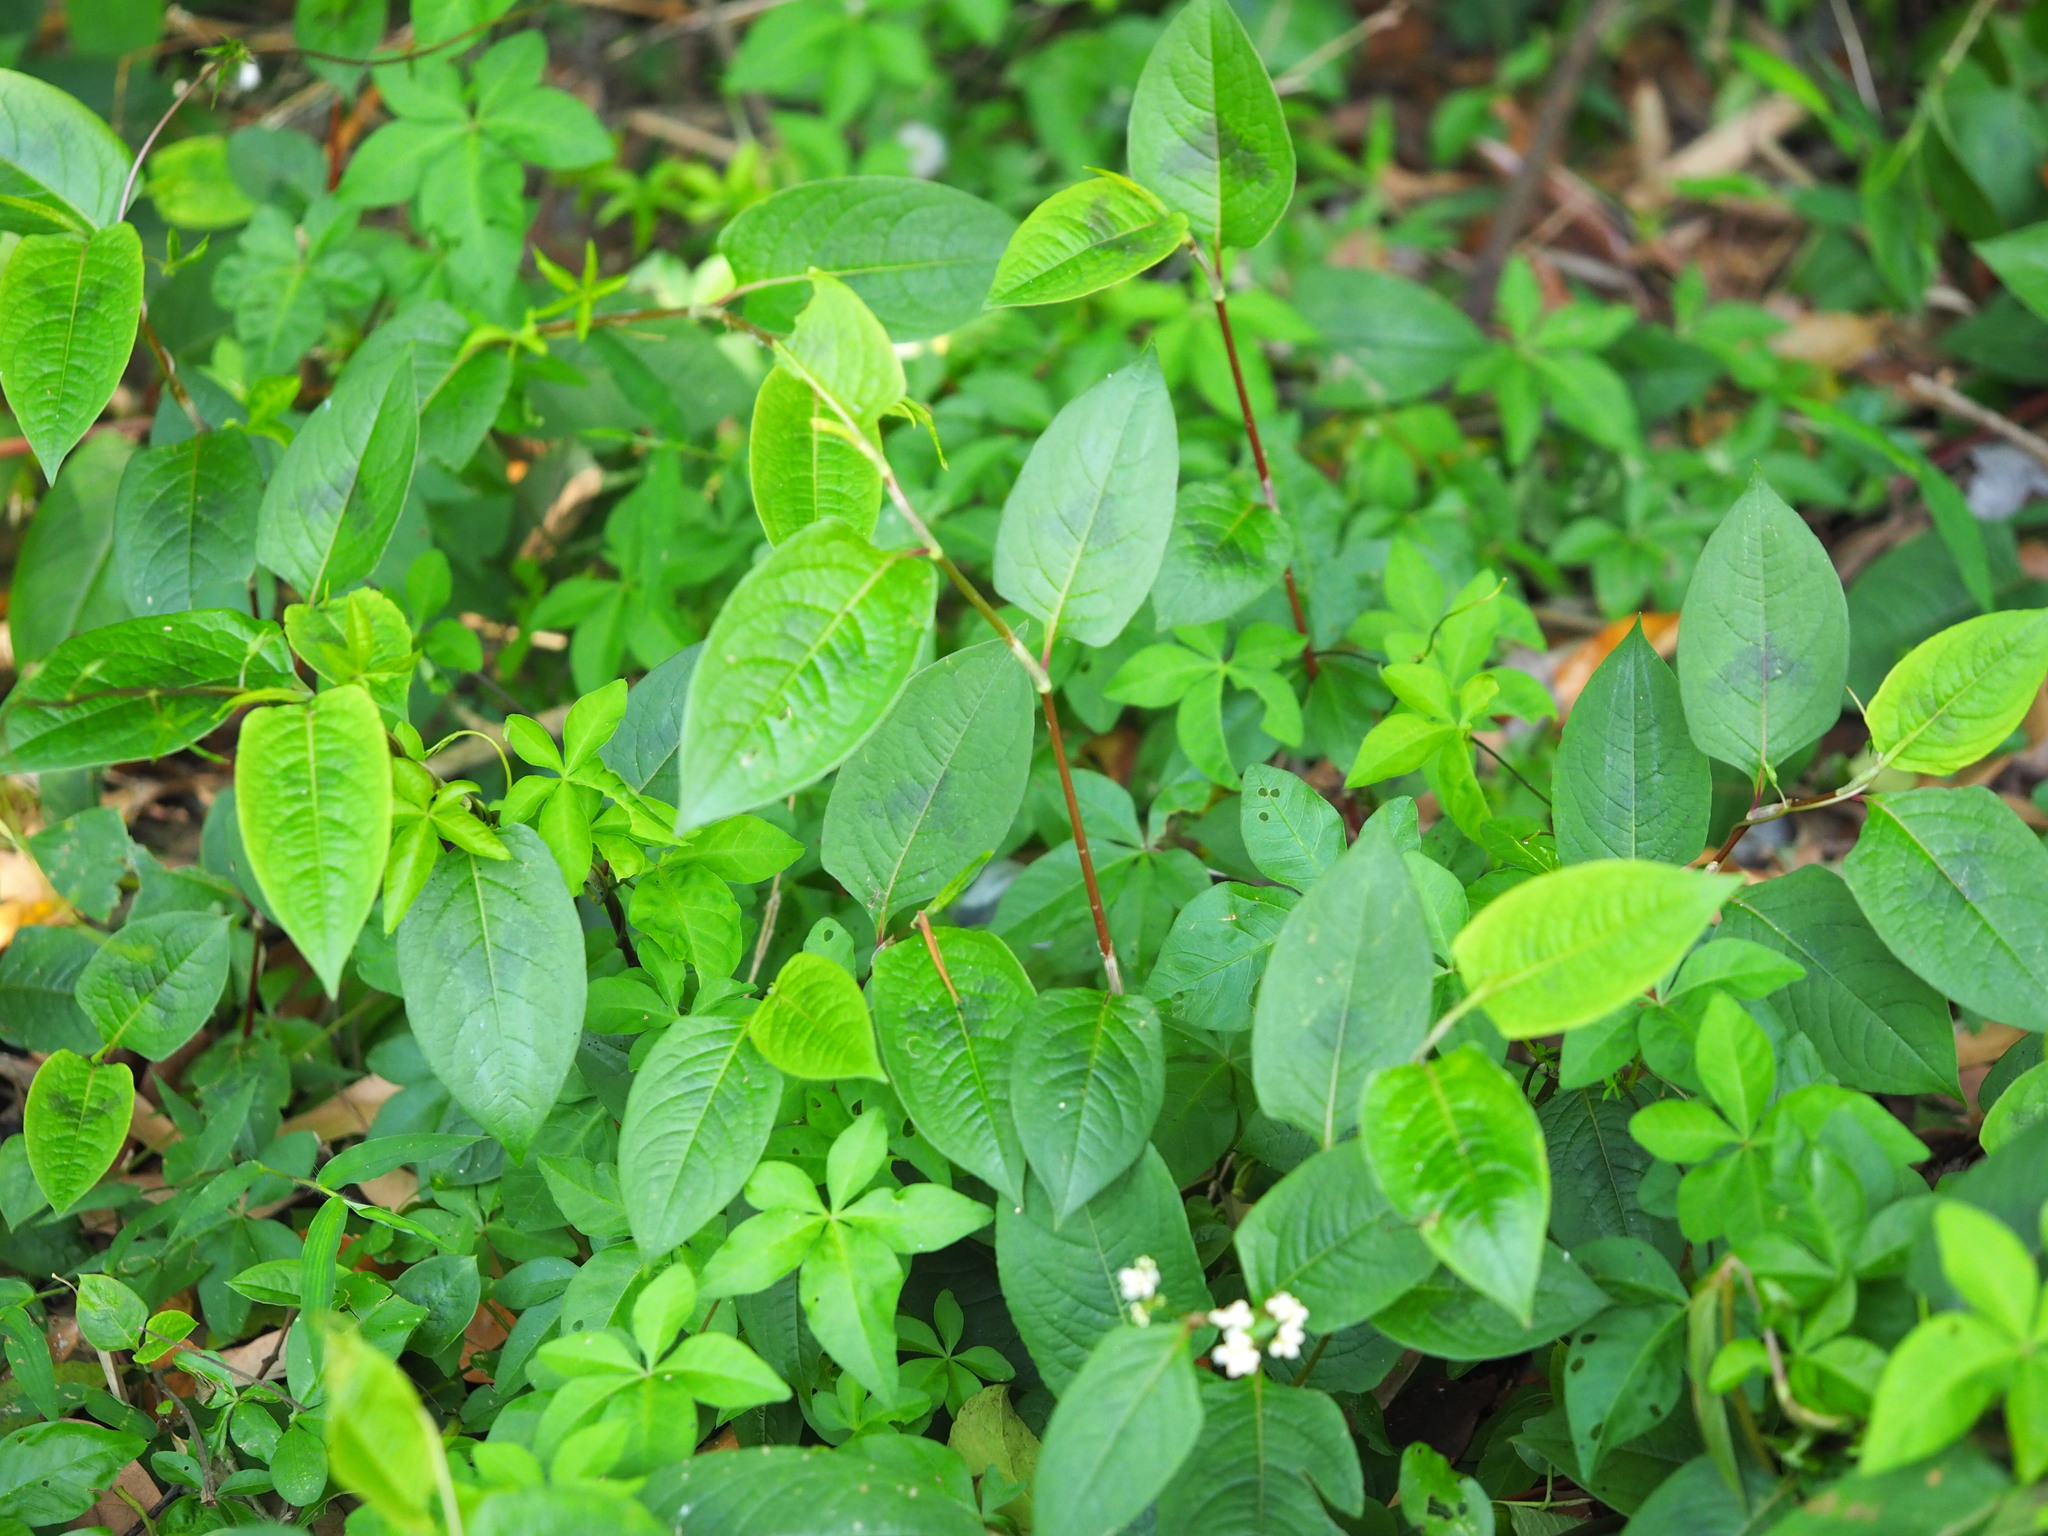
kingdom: Plantae
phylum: Tracheophyta
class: Magnoliopsida
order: Caryophyllales
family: Polygonaceae
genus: Persicaria
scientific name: Persicaria chinensis
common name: Chinese knotweed
